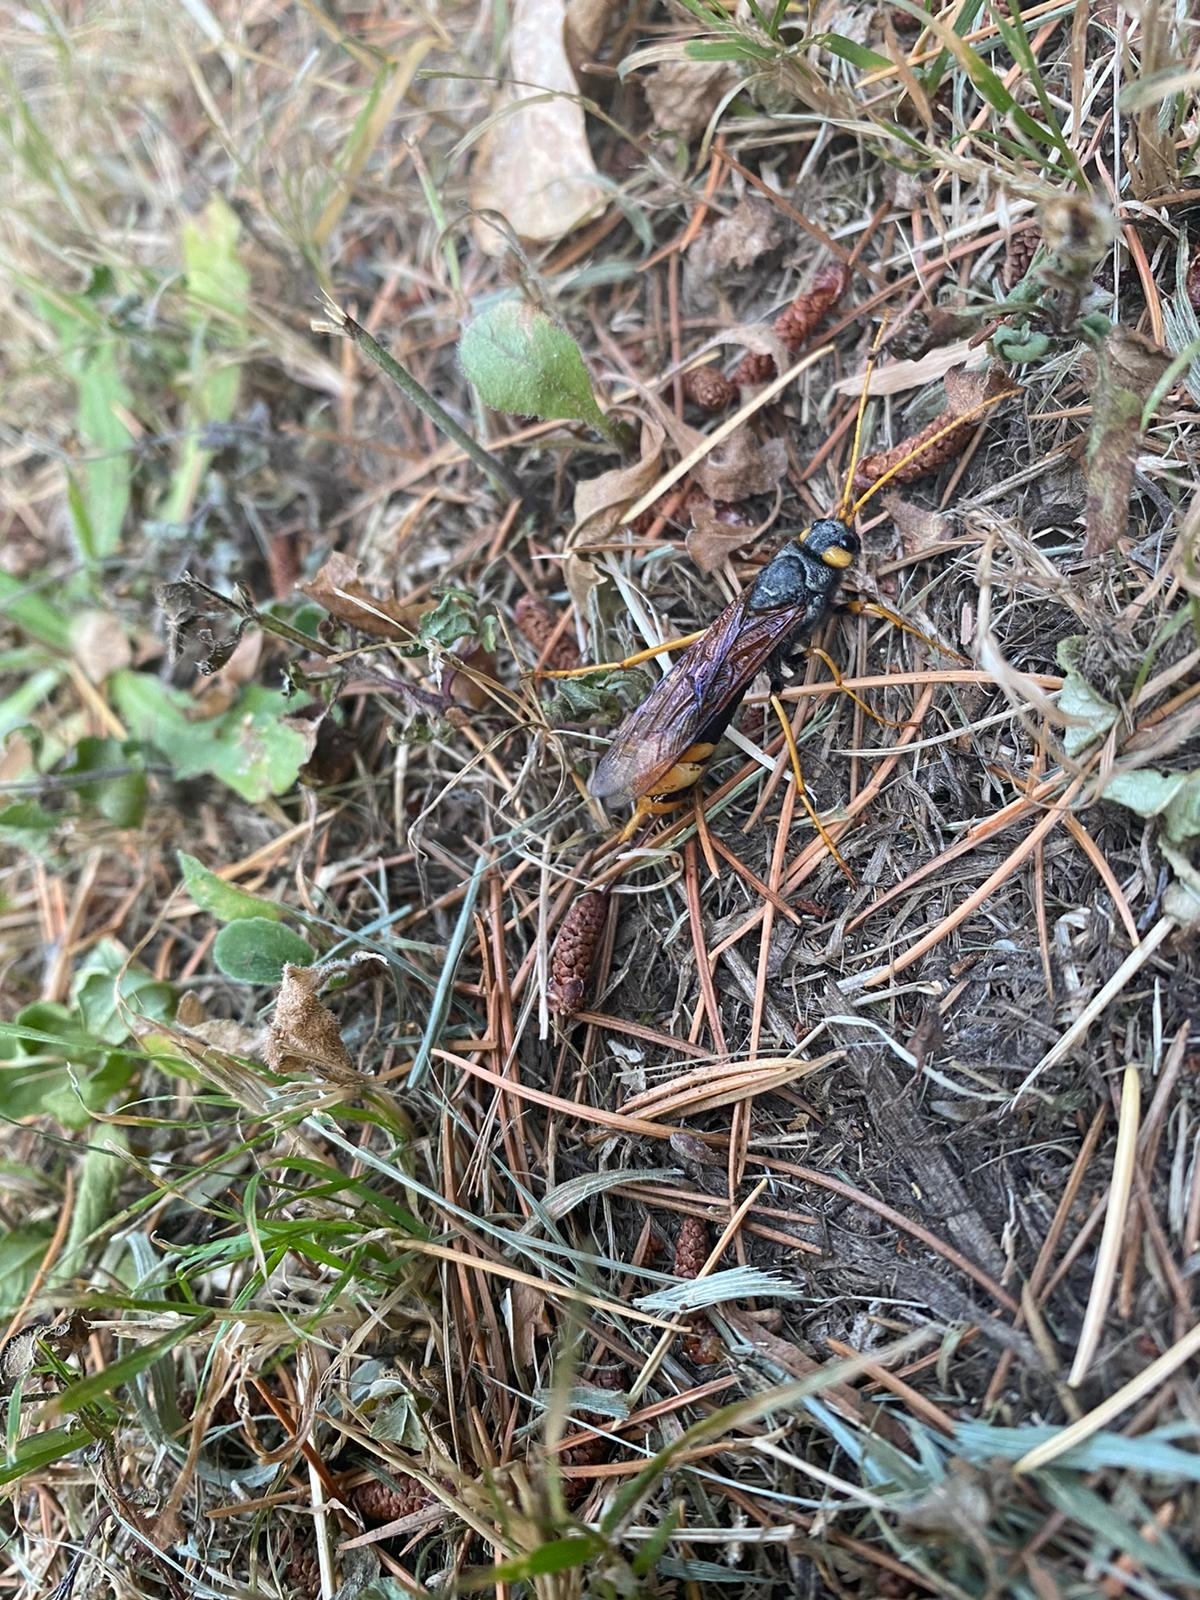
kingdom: Animalia
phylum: Arthropoda
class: Insecta
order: Hymenoptera
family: Siricidae
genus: Urocerus
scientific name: Urocerus gigas
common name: Giant woodwasp
